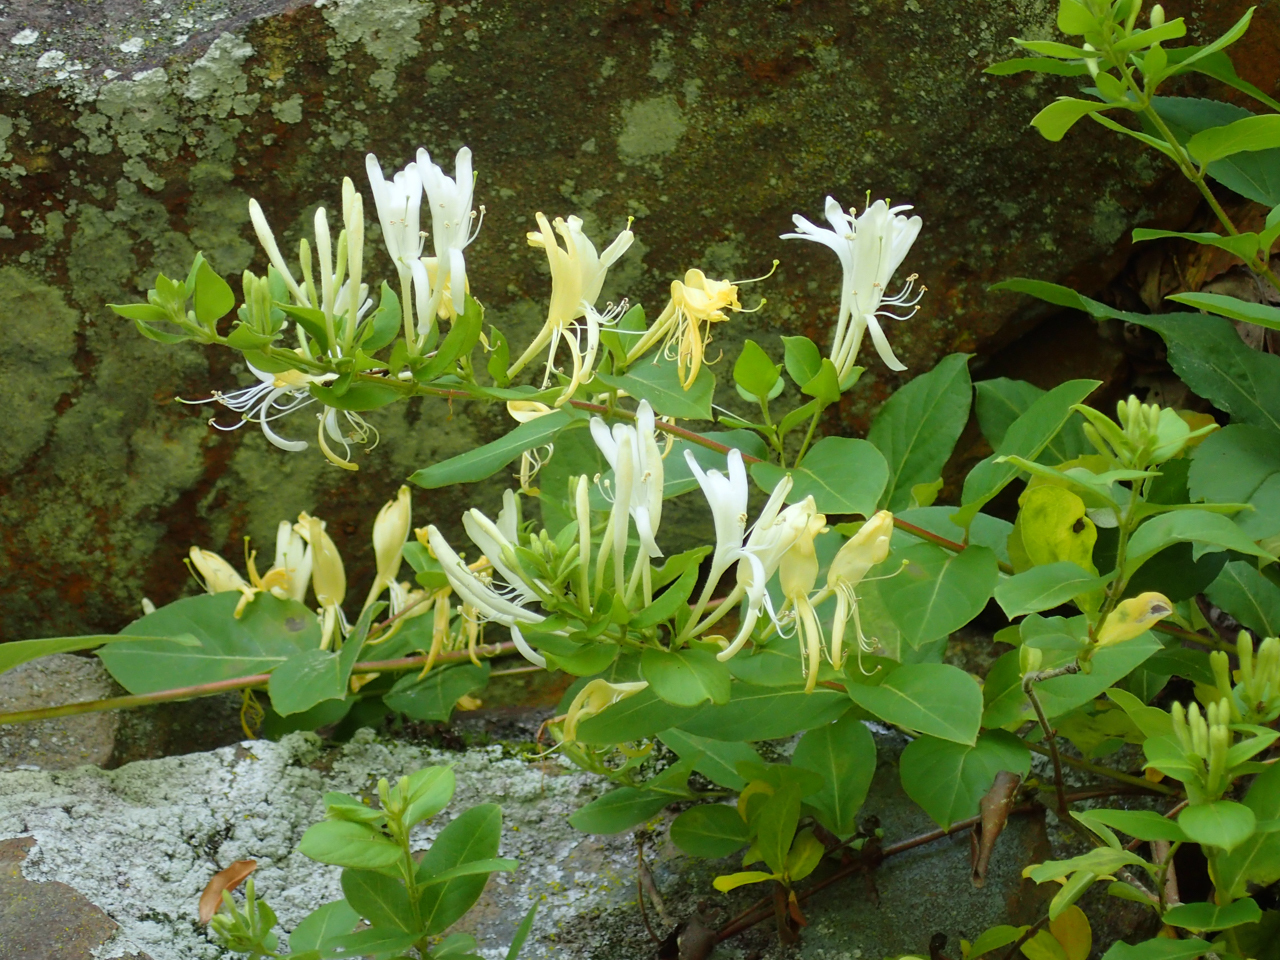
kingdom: Plantae
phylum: Tracheophyta
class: Magnoliopsida
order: Dipsacales
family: Caprifoliaceae
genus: Lonicera
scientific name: Lonicera japonica
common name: Japanese honeysuckle
